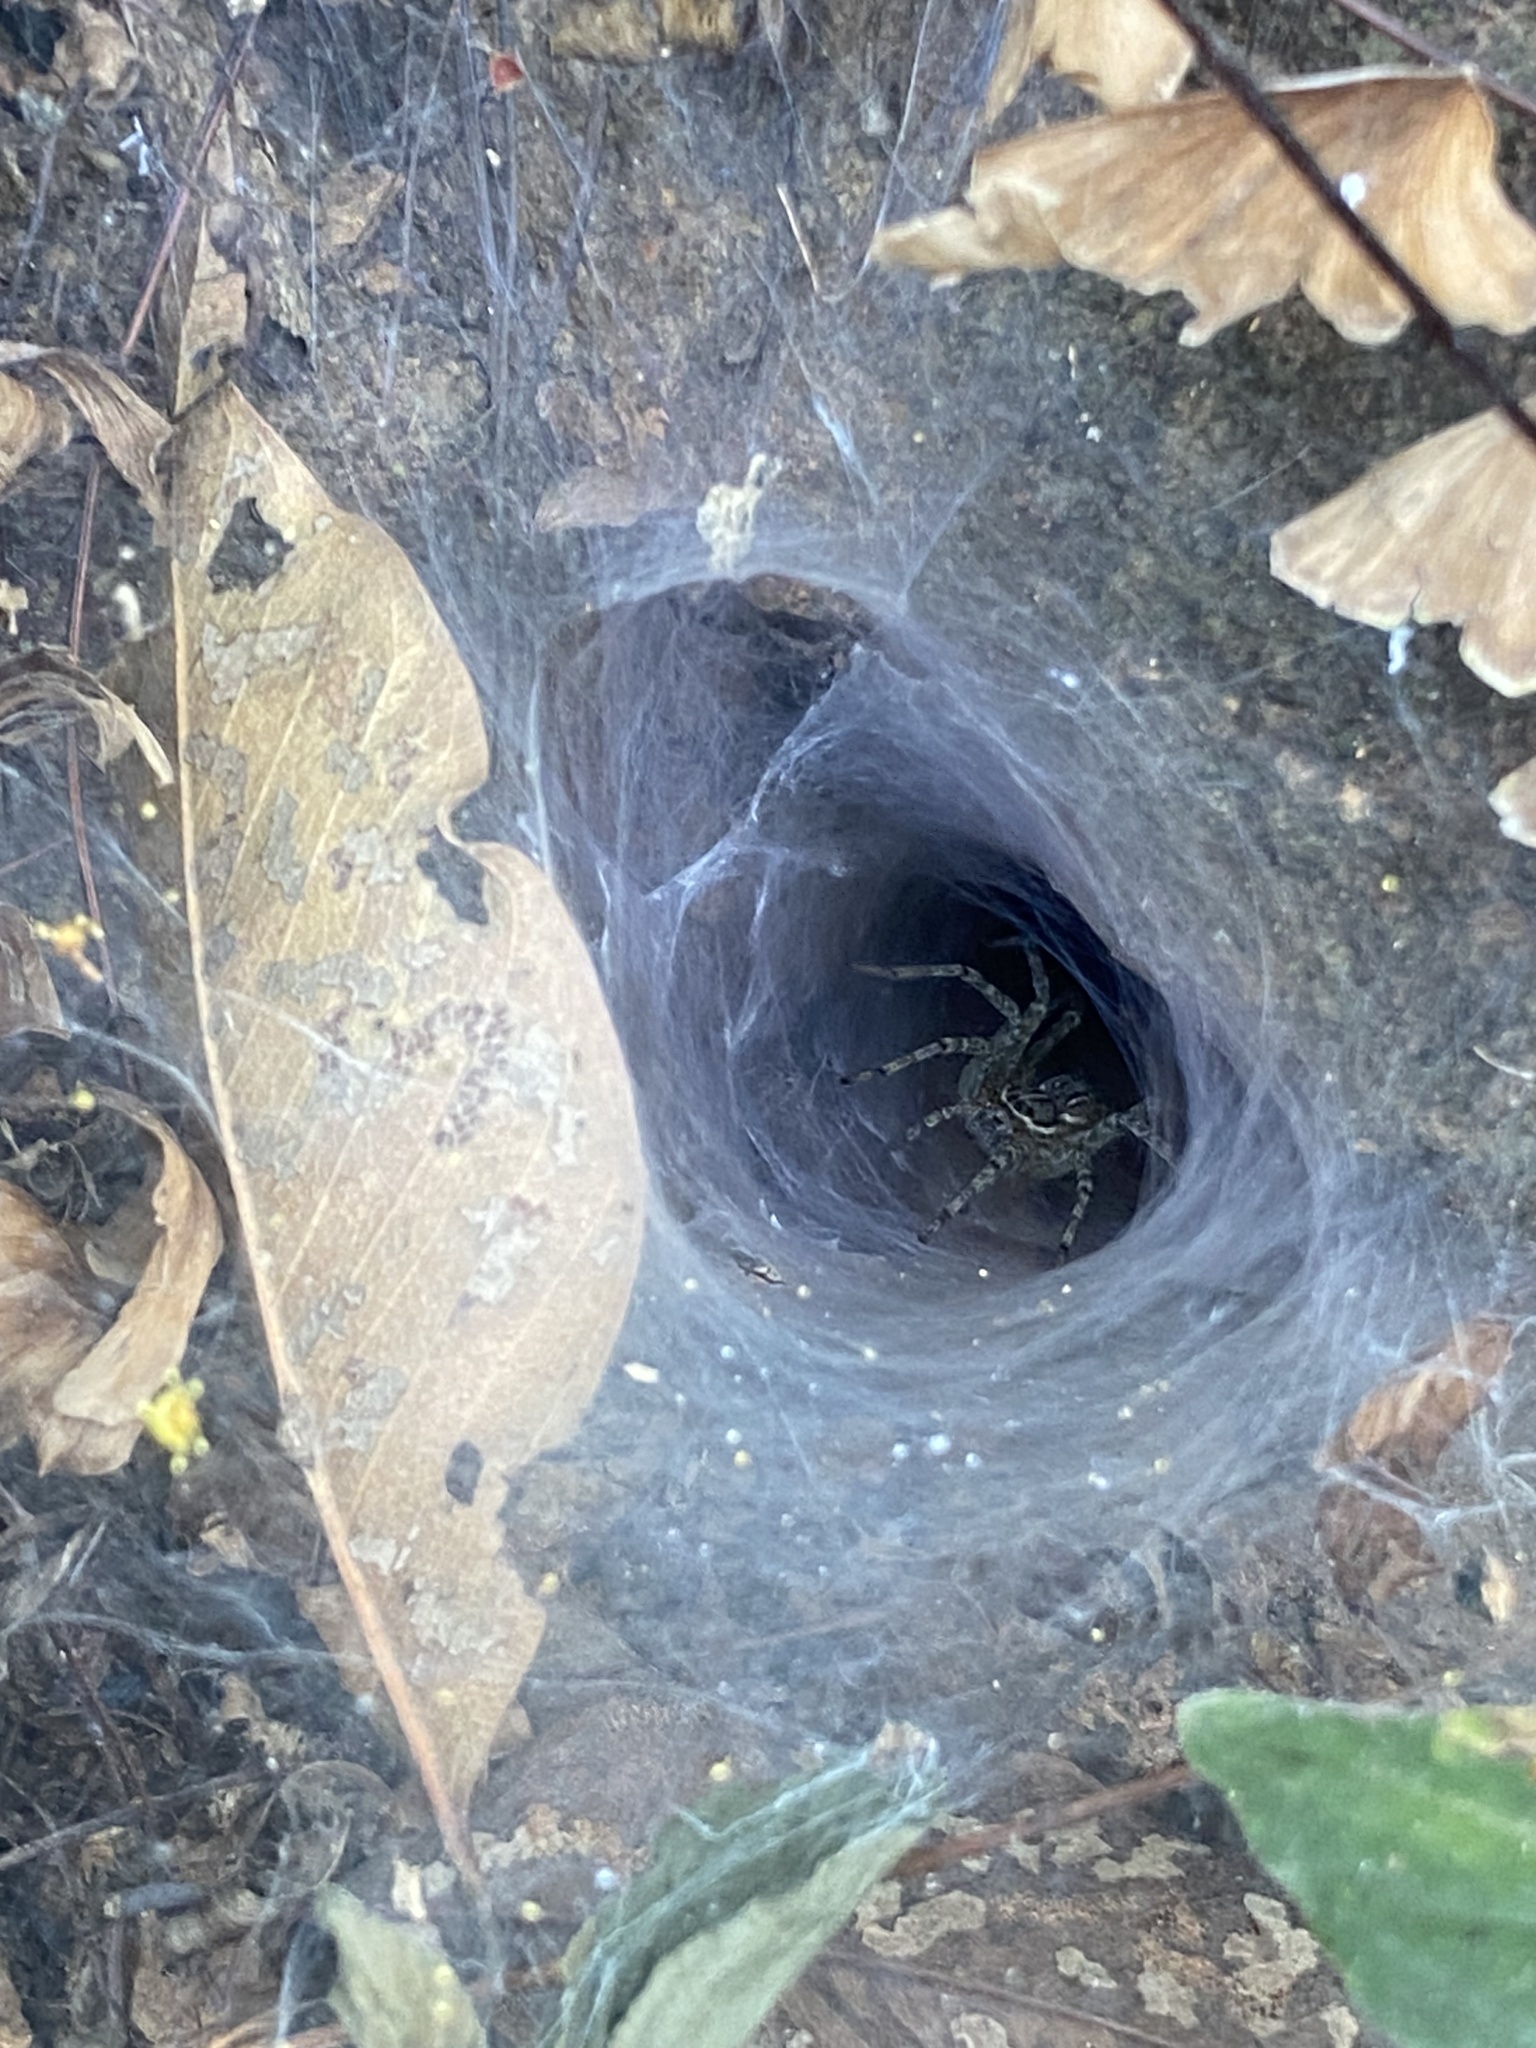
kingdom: Animalia
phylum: Arthropoda
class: Arachnida
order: Araneae
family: Lycosidae
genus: Hippasa
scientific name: Hippasa holmerae
